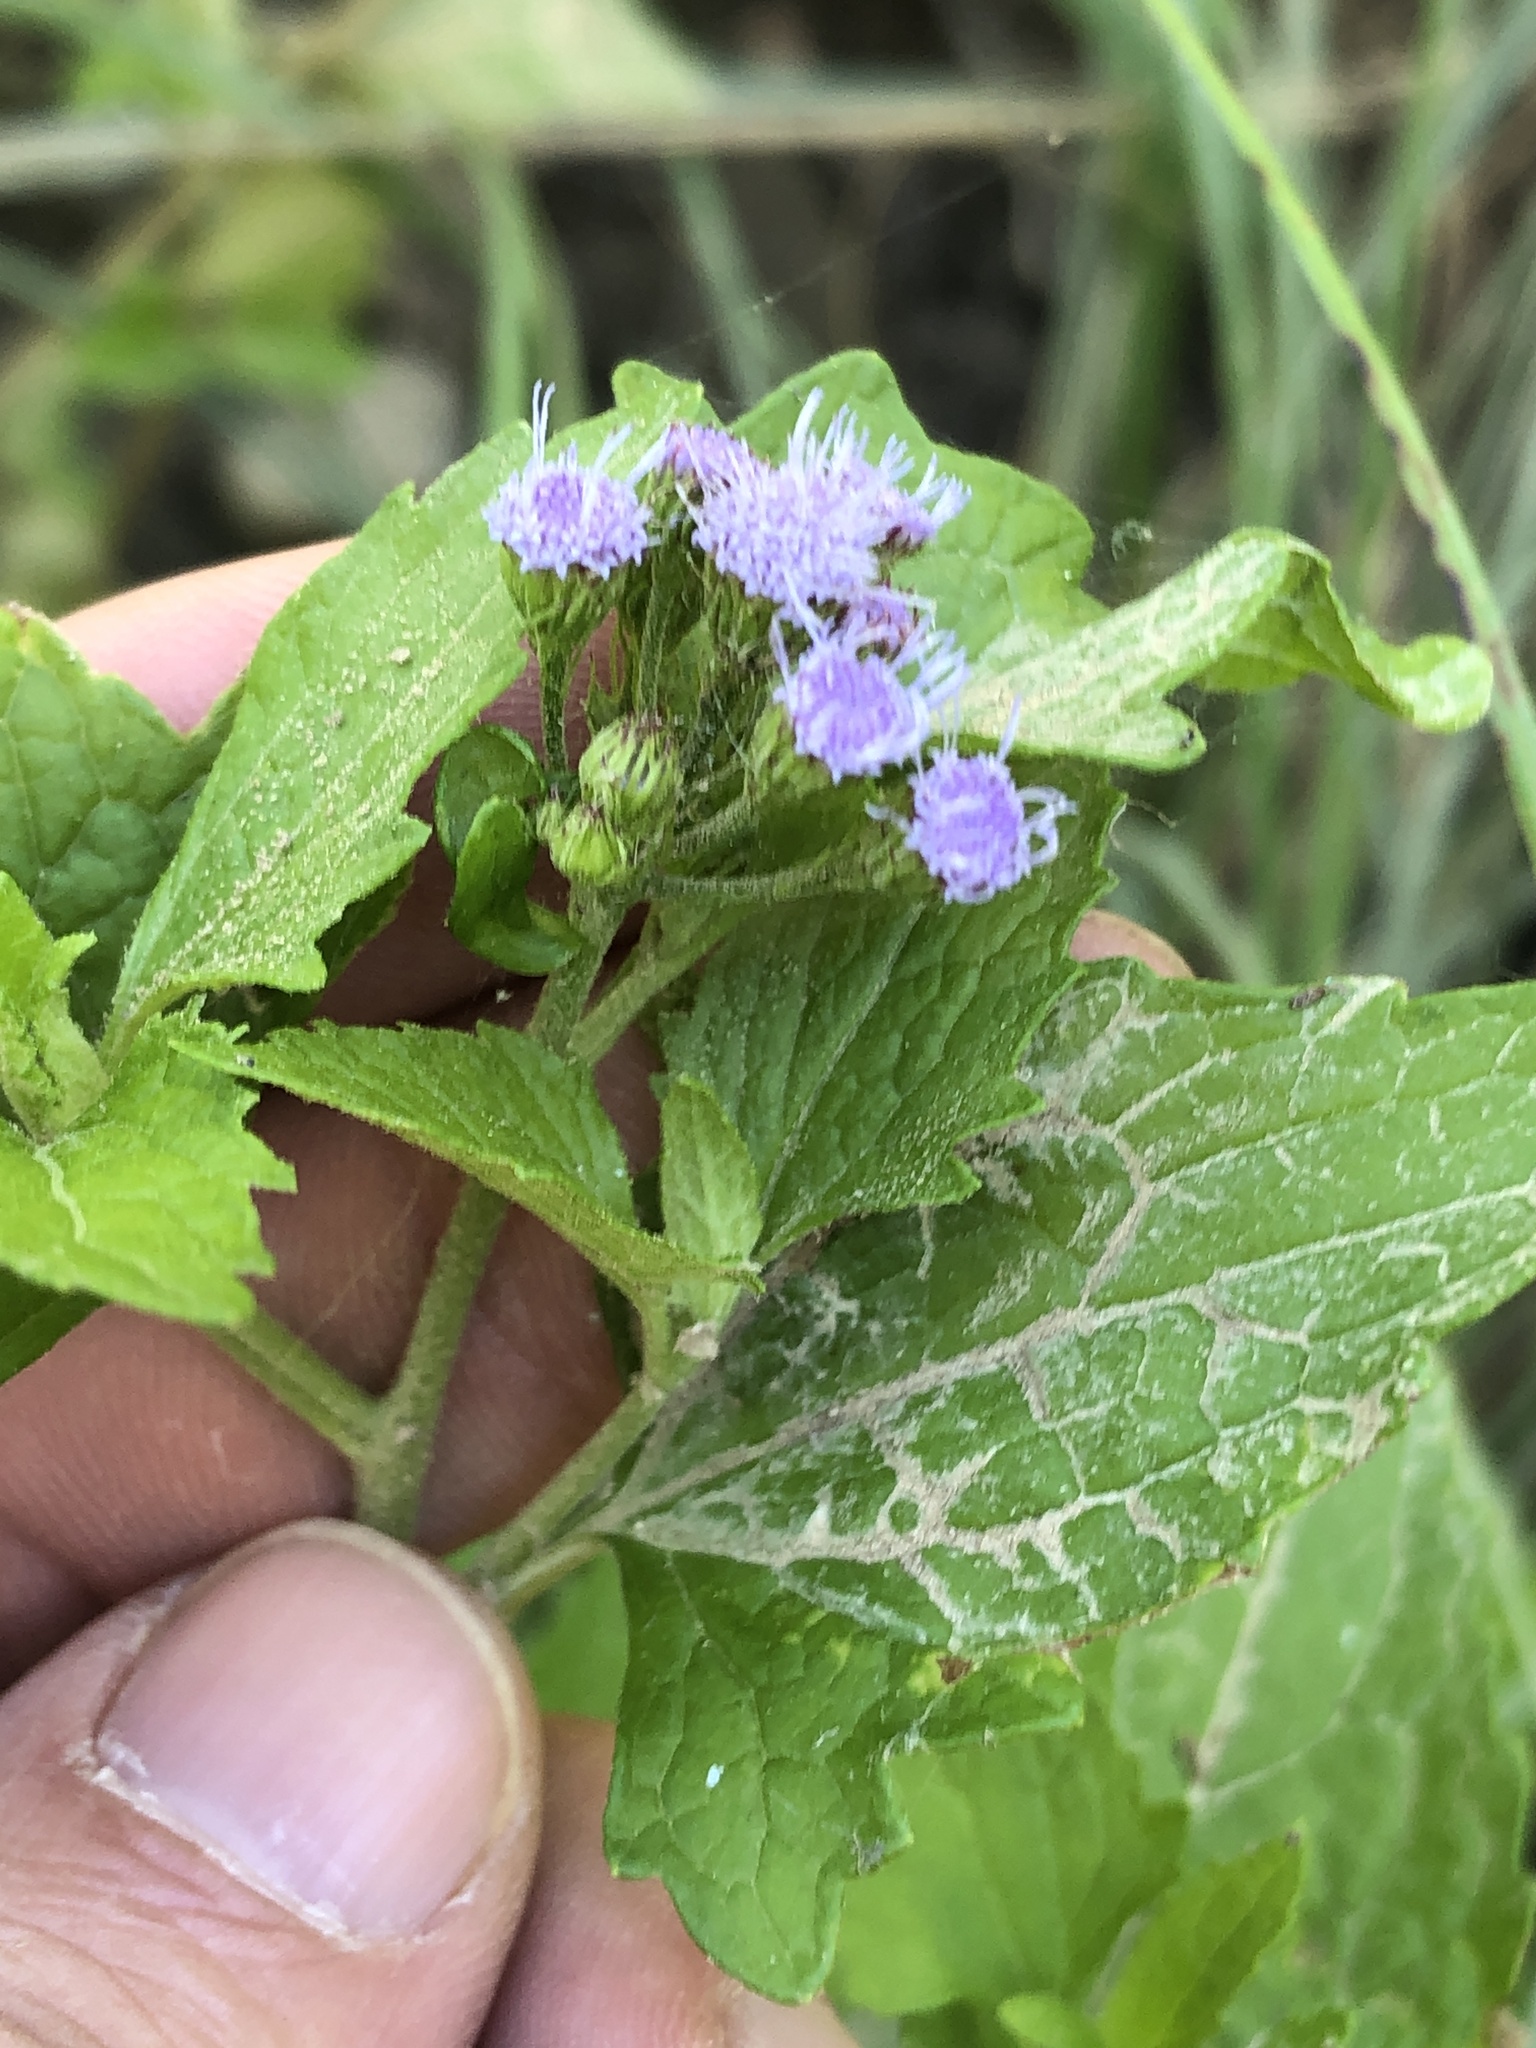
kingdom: Plantae
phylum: Tracheophyta
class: Magnoliopsida
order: Asterales
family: Asteraceae
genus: Conoclinium
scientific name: Conoclinium coelestinum
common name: Blue mistflower
